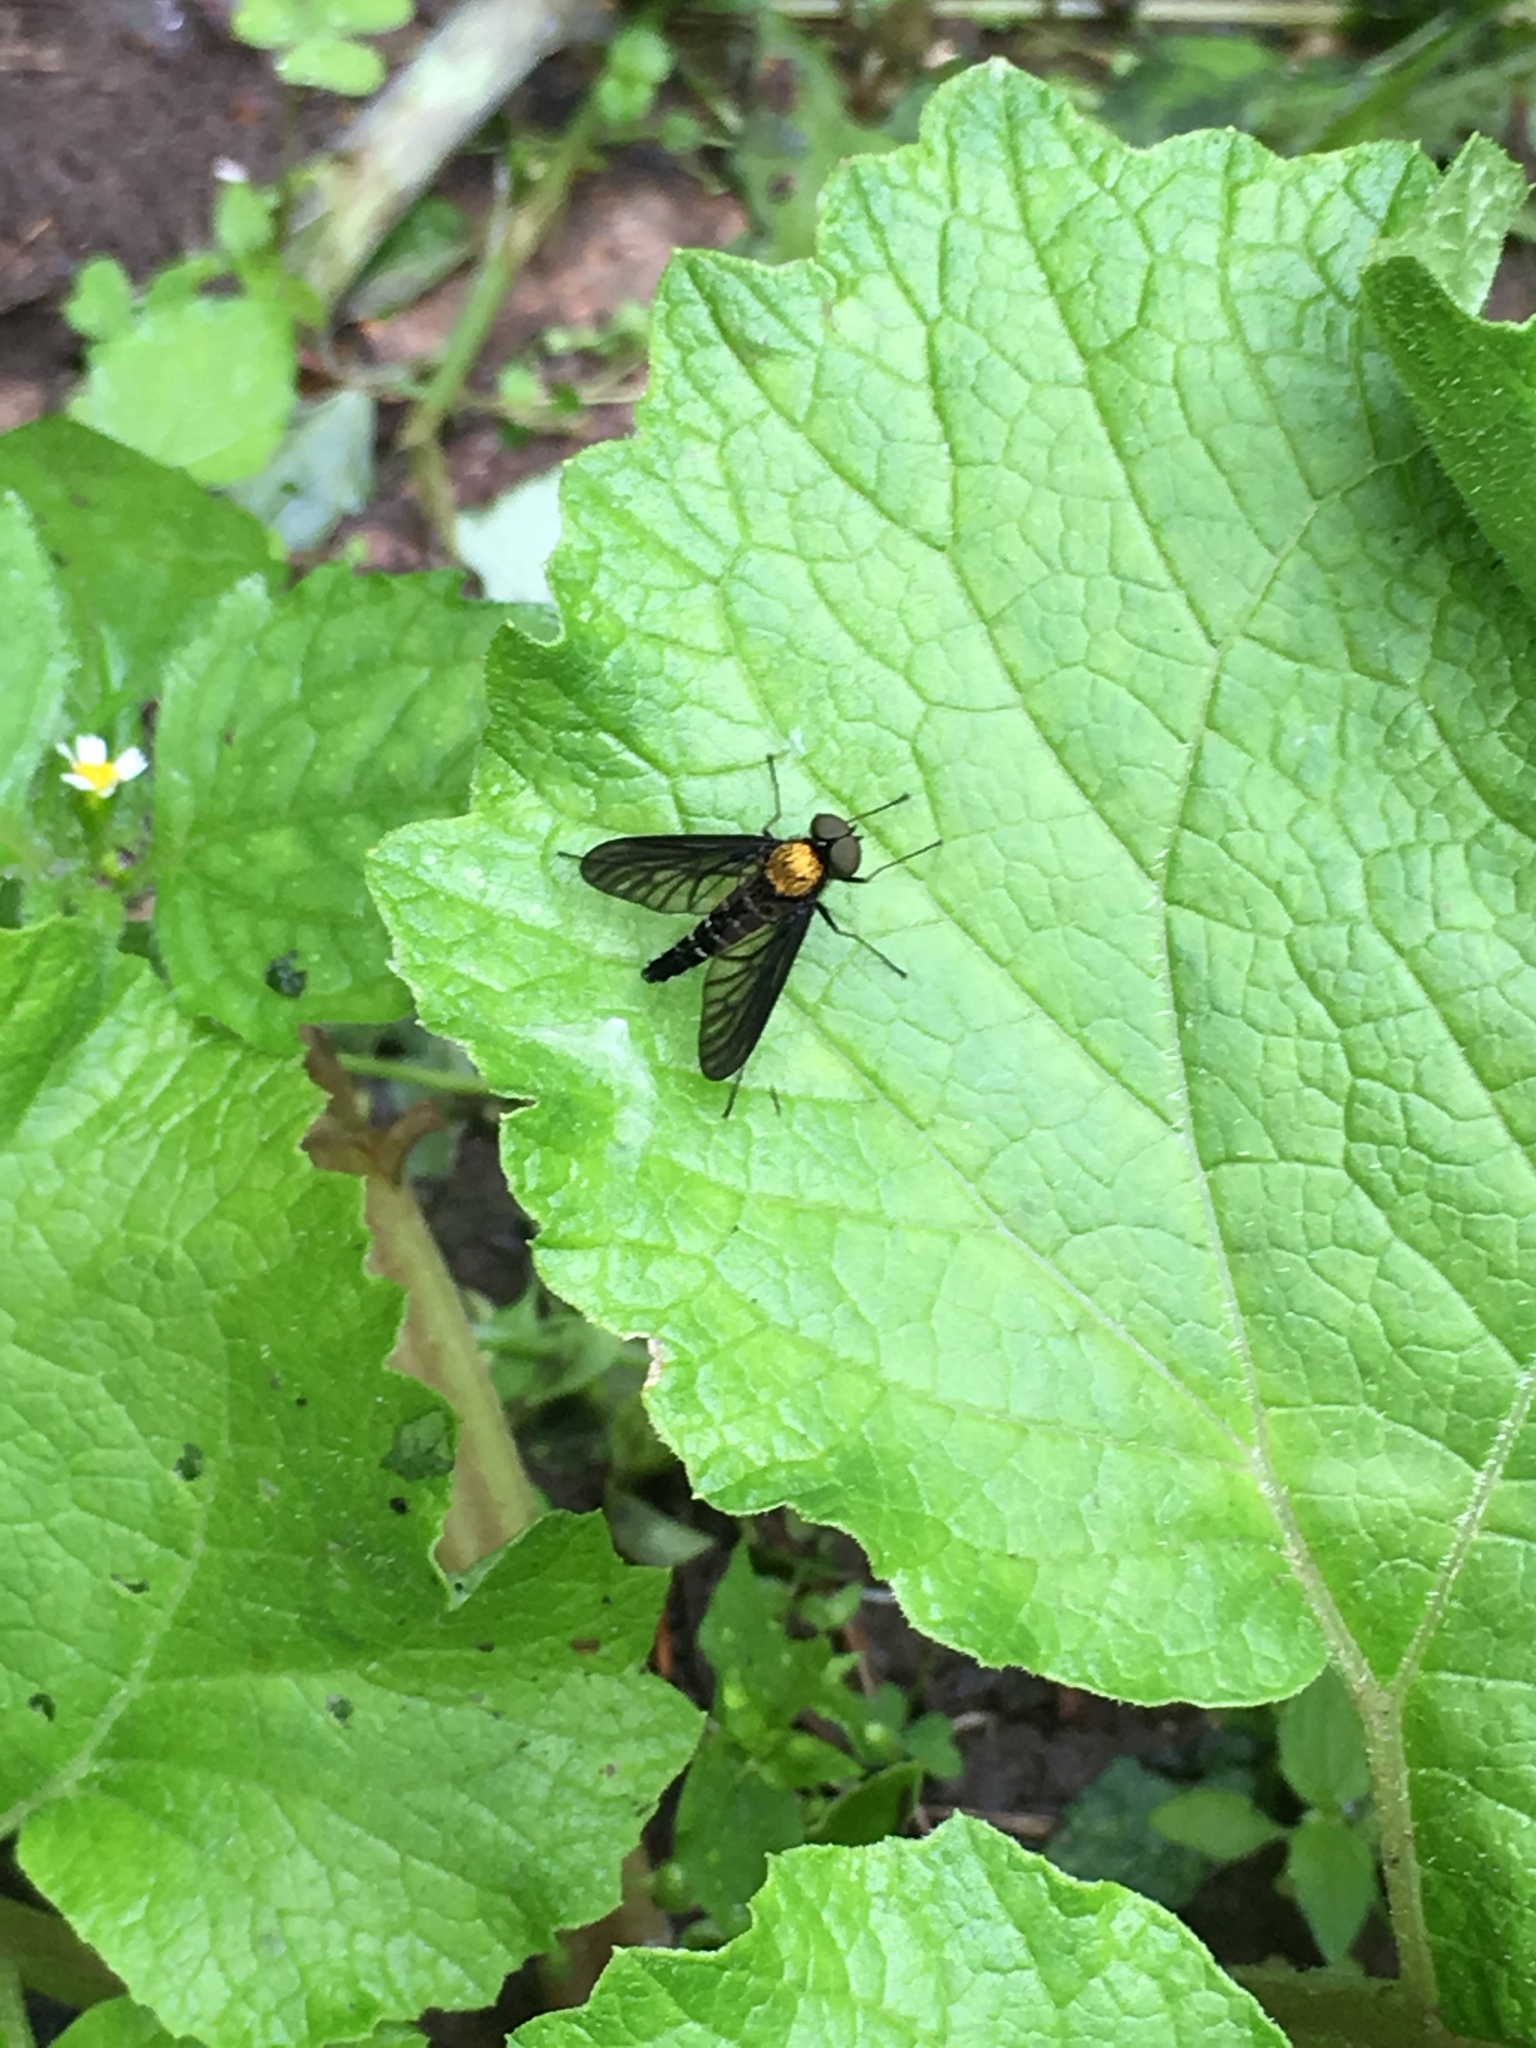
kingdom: Animalia
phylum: Arthropoda
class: Insecta
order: Diptera
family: Rhagionidae
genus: Chrysopilus
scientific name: Chrysopilus thoracicus
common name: Golden-backed snipe fly
